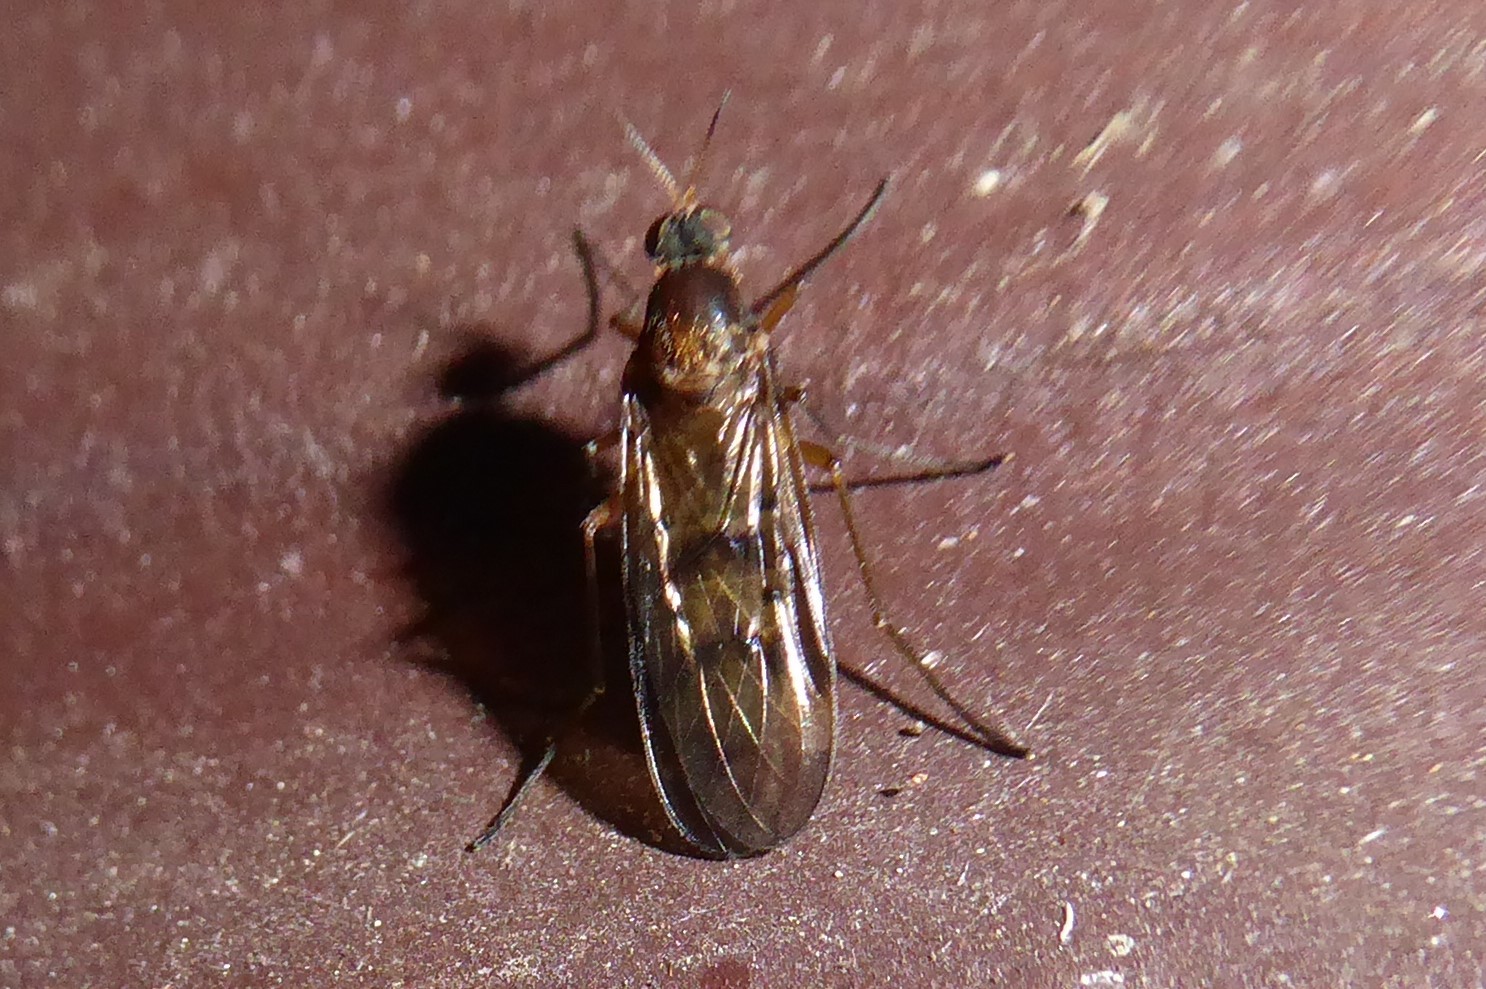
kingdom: Animalia
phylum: Arthropoda
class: Insecta
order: Diptera
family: Anisopodidae
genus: Sylvicola
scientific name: Sylvicola neozelandicus
